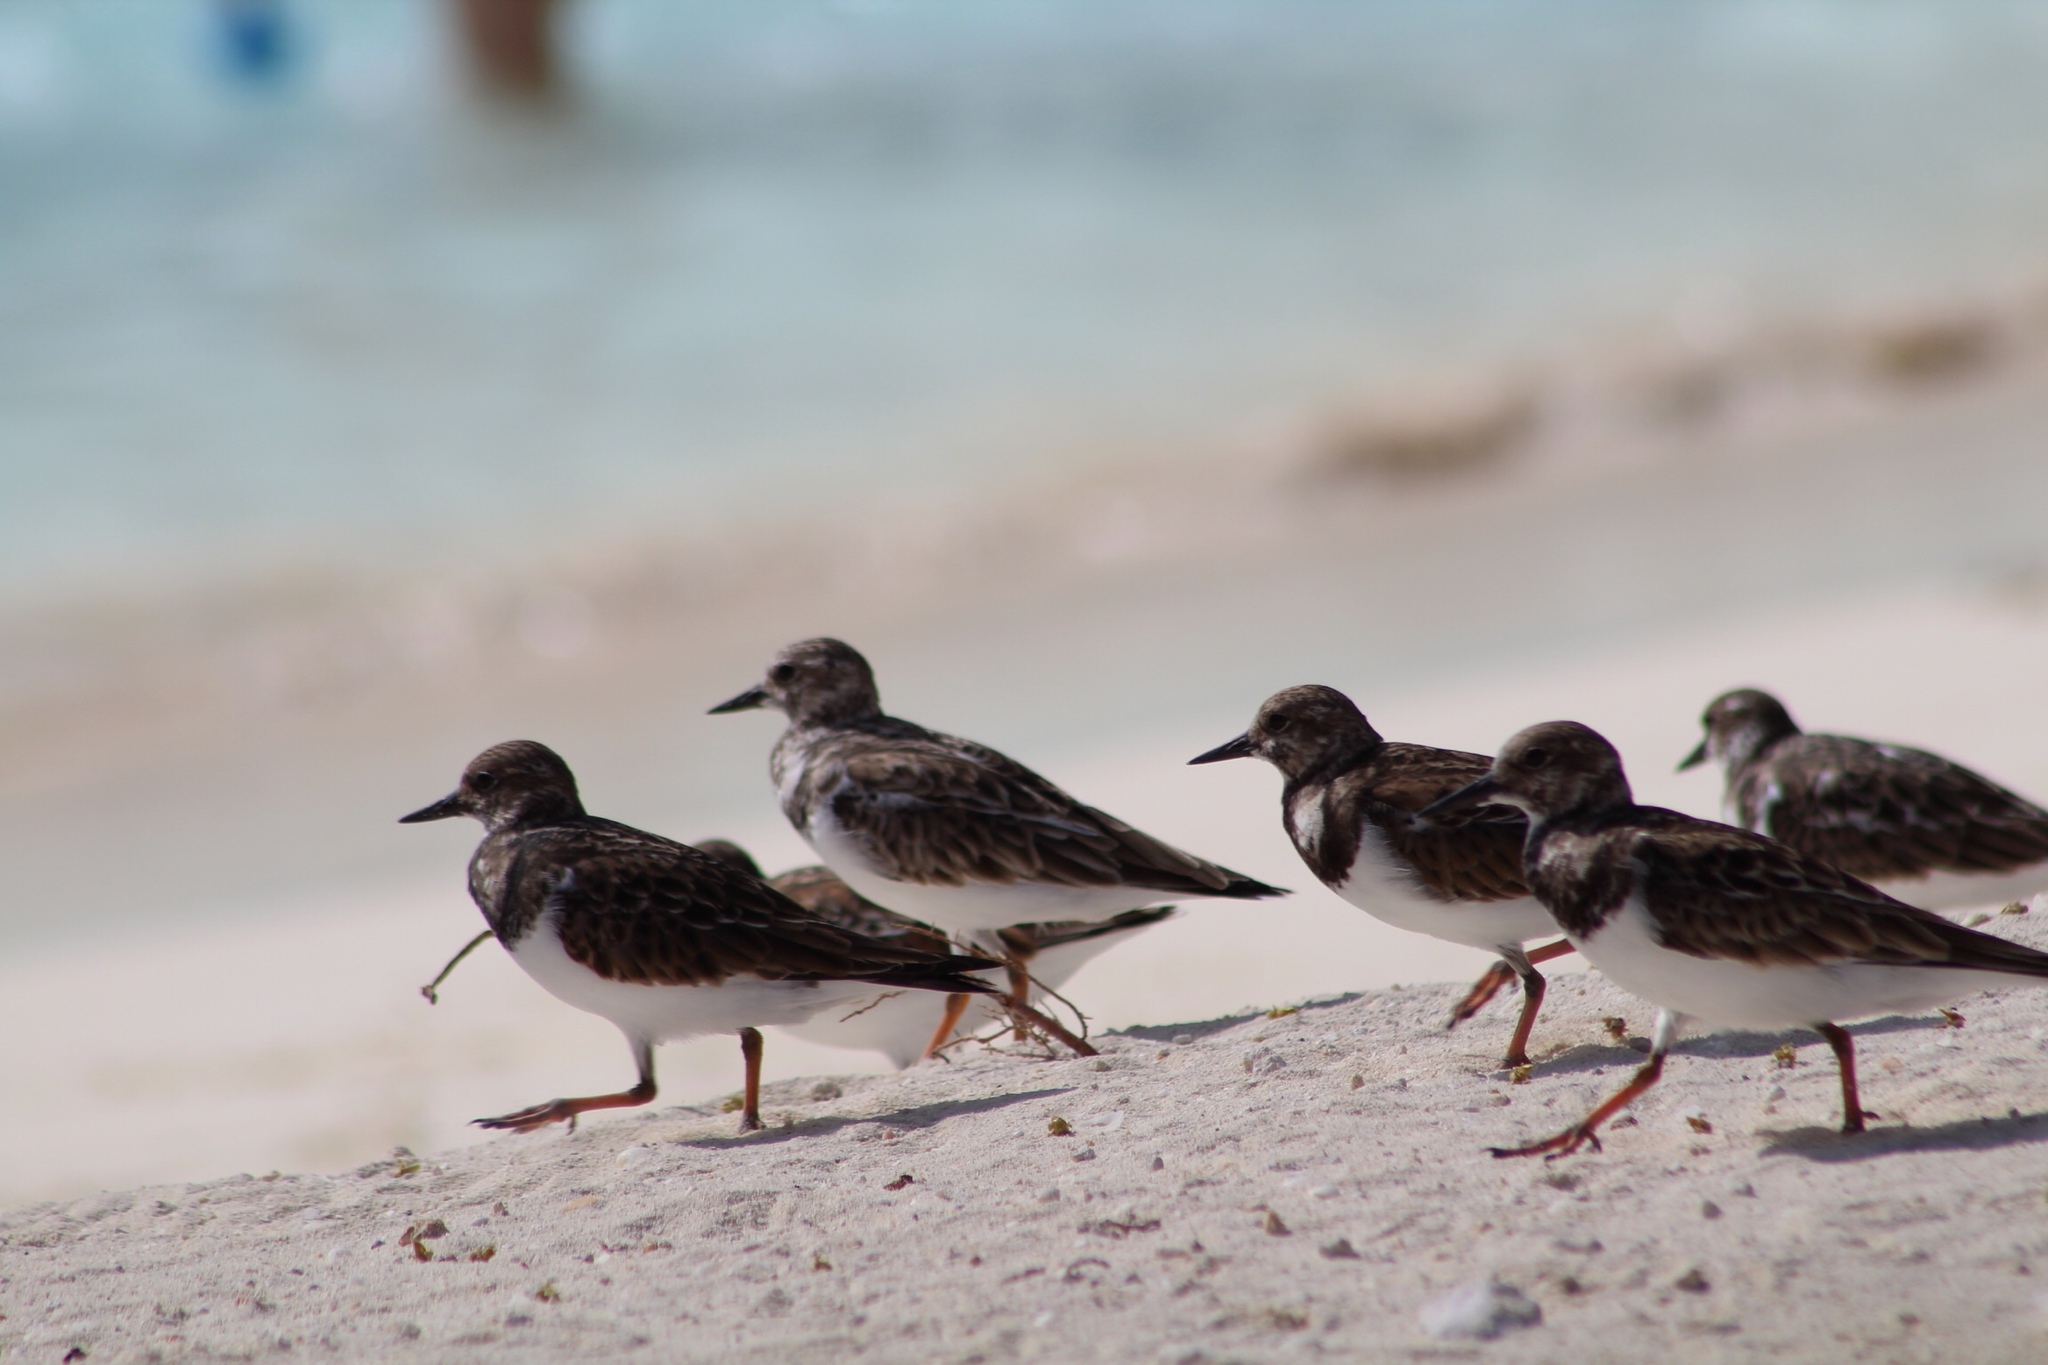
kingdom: Animalia
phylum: Chordata
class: Aves
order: Charadriiformes
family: Scolopacidae
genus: Arenaria
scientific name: Arenaria interpres
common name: Ruddy turnstone
